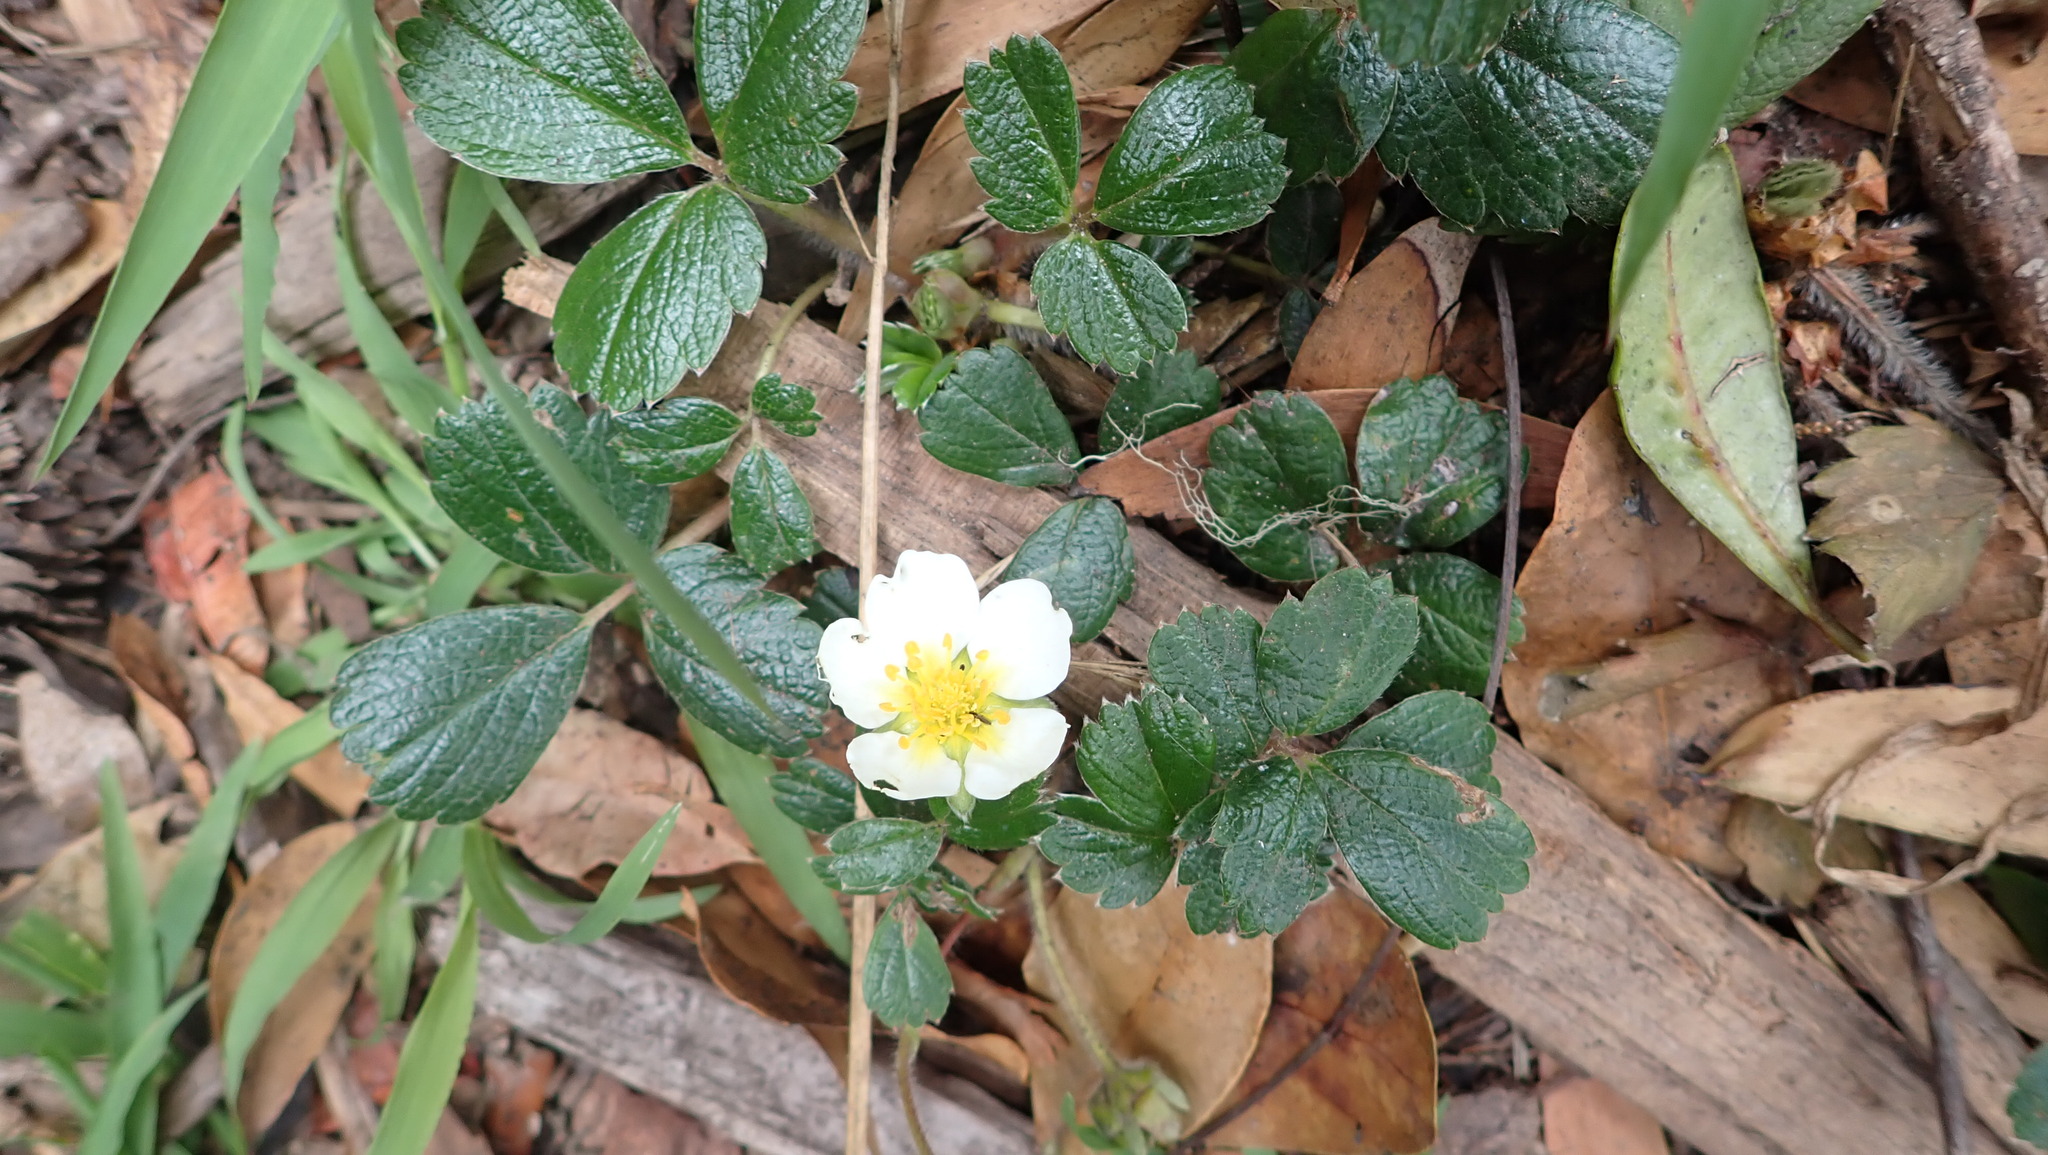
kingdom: Plantae
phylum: Tracheophyta
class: Magnoliopsida
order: Rosales
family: Rosaceae
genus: Fragaria
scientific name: Fragaria chiloensis
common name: Beach strawberry
